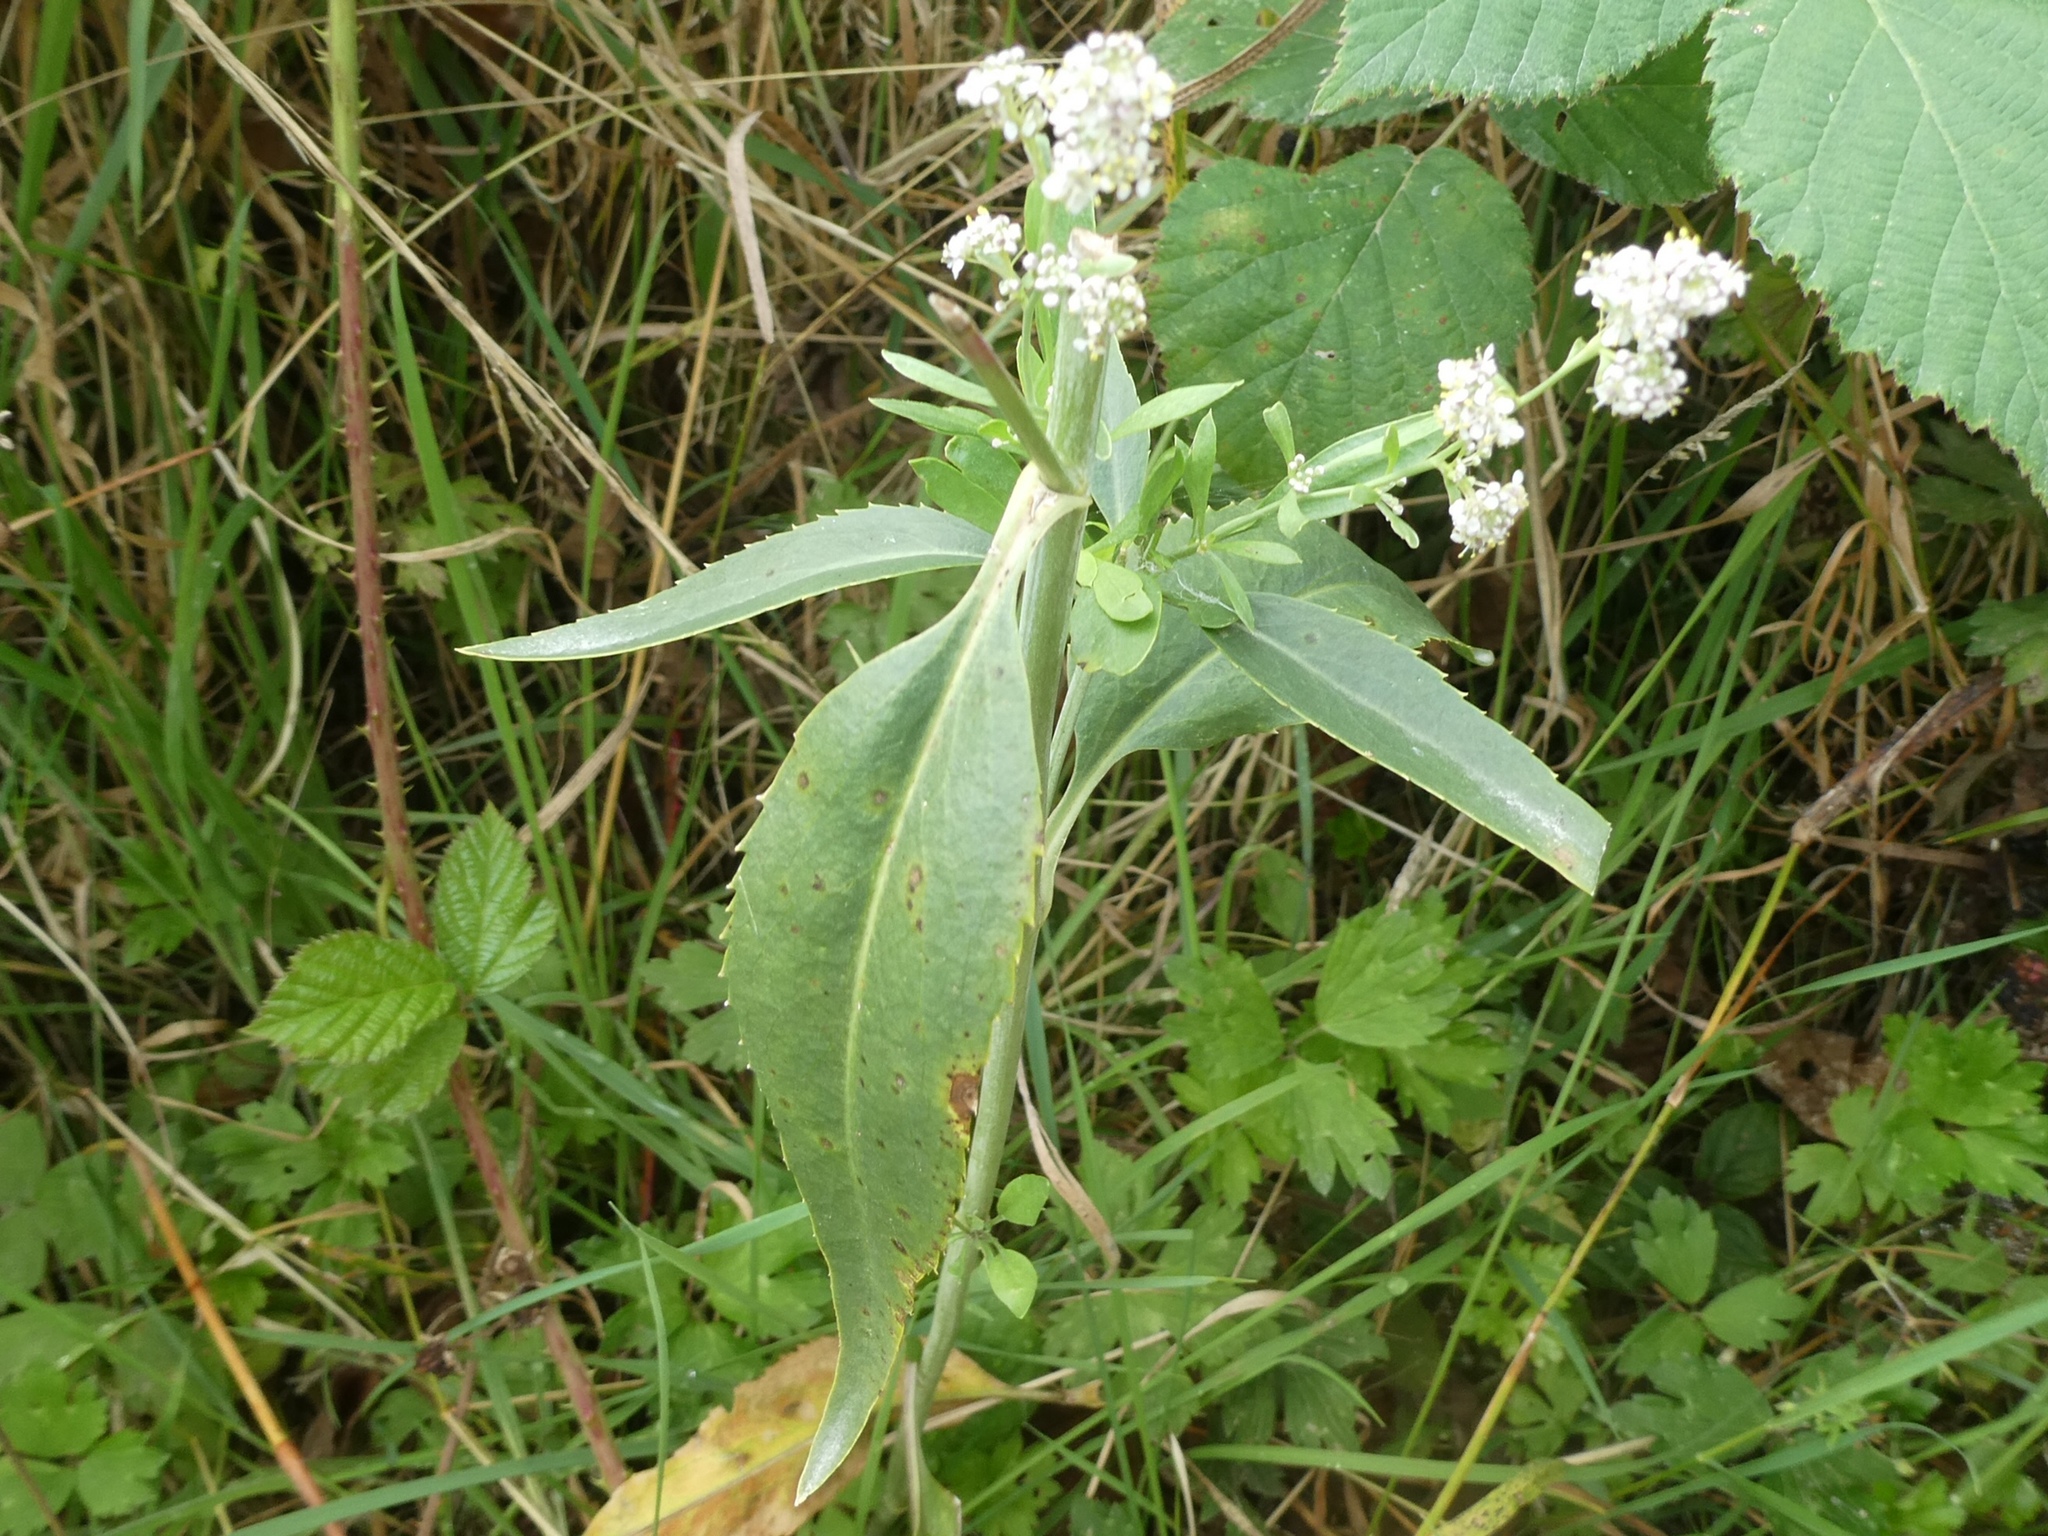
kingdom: Plantae
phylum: Tracheophyta
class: Magnoliopsida
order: Brassicales
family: Brassicaceae
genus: Lepidium
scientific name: Lepidium latifolium
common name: Dittander
